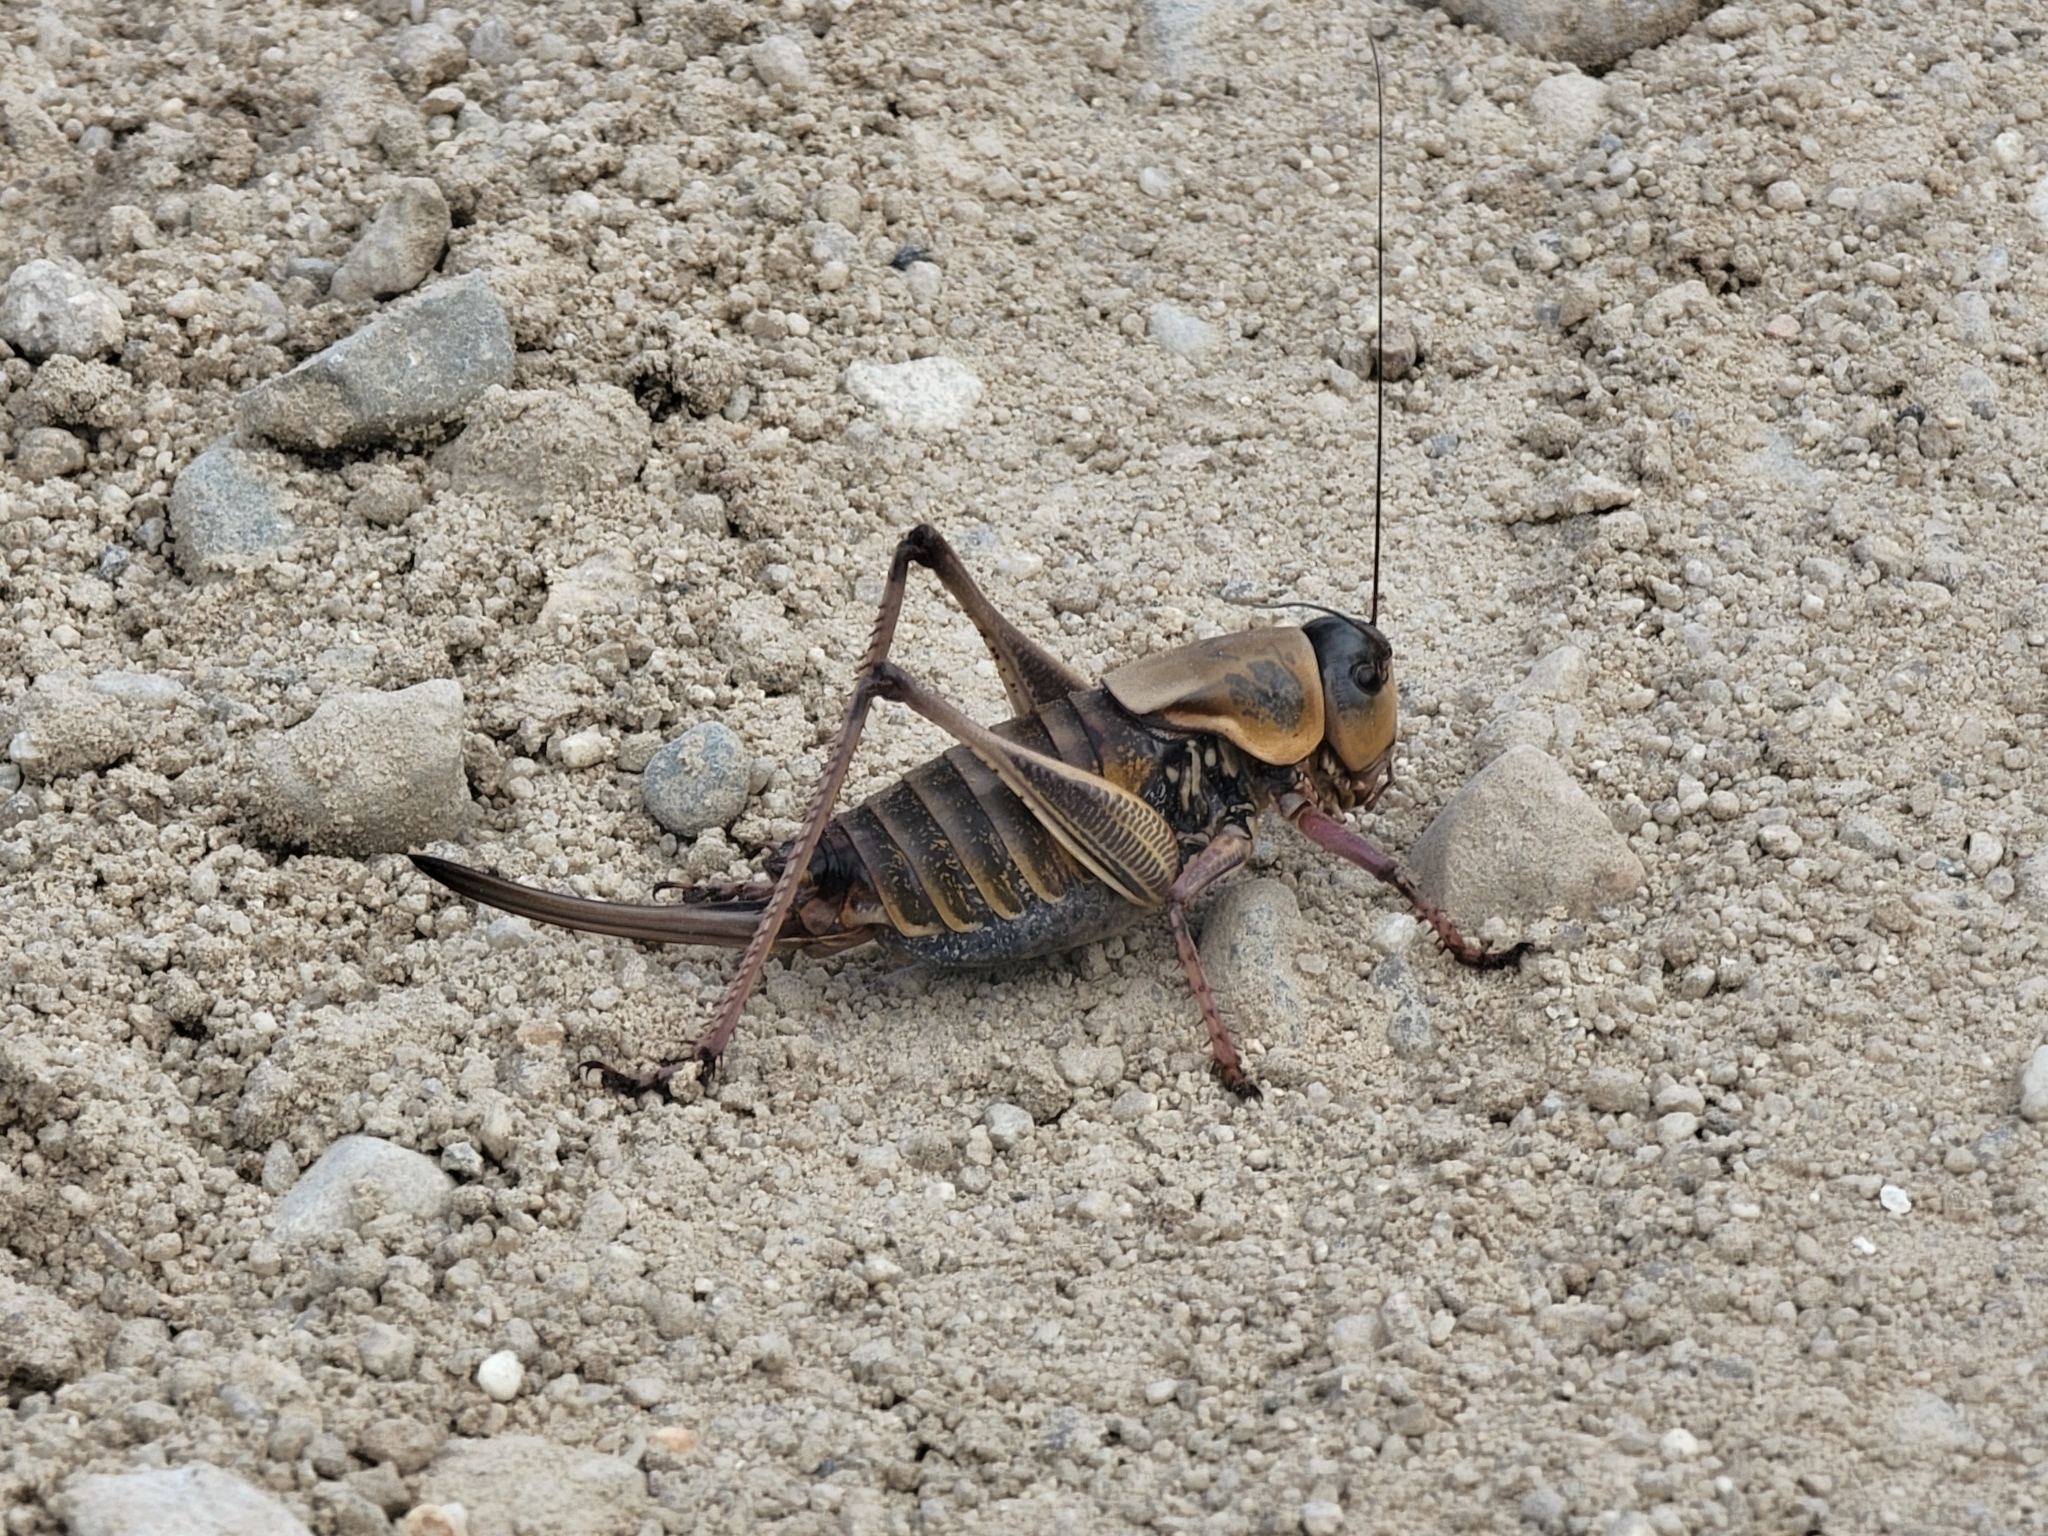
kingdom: Animalia
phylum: Arthropoda
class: Insecta
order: Orthoptera
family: Tettigoniidae
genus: Anabrus
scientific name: Anabrus simplex
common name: Mormon cricket
